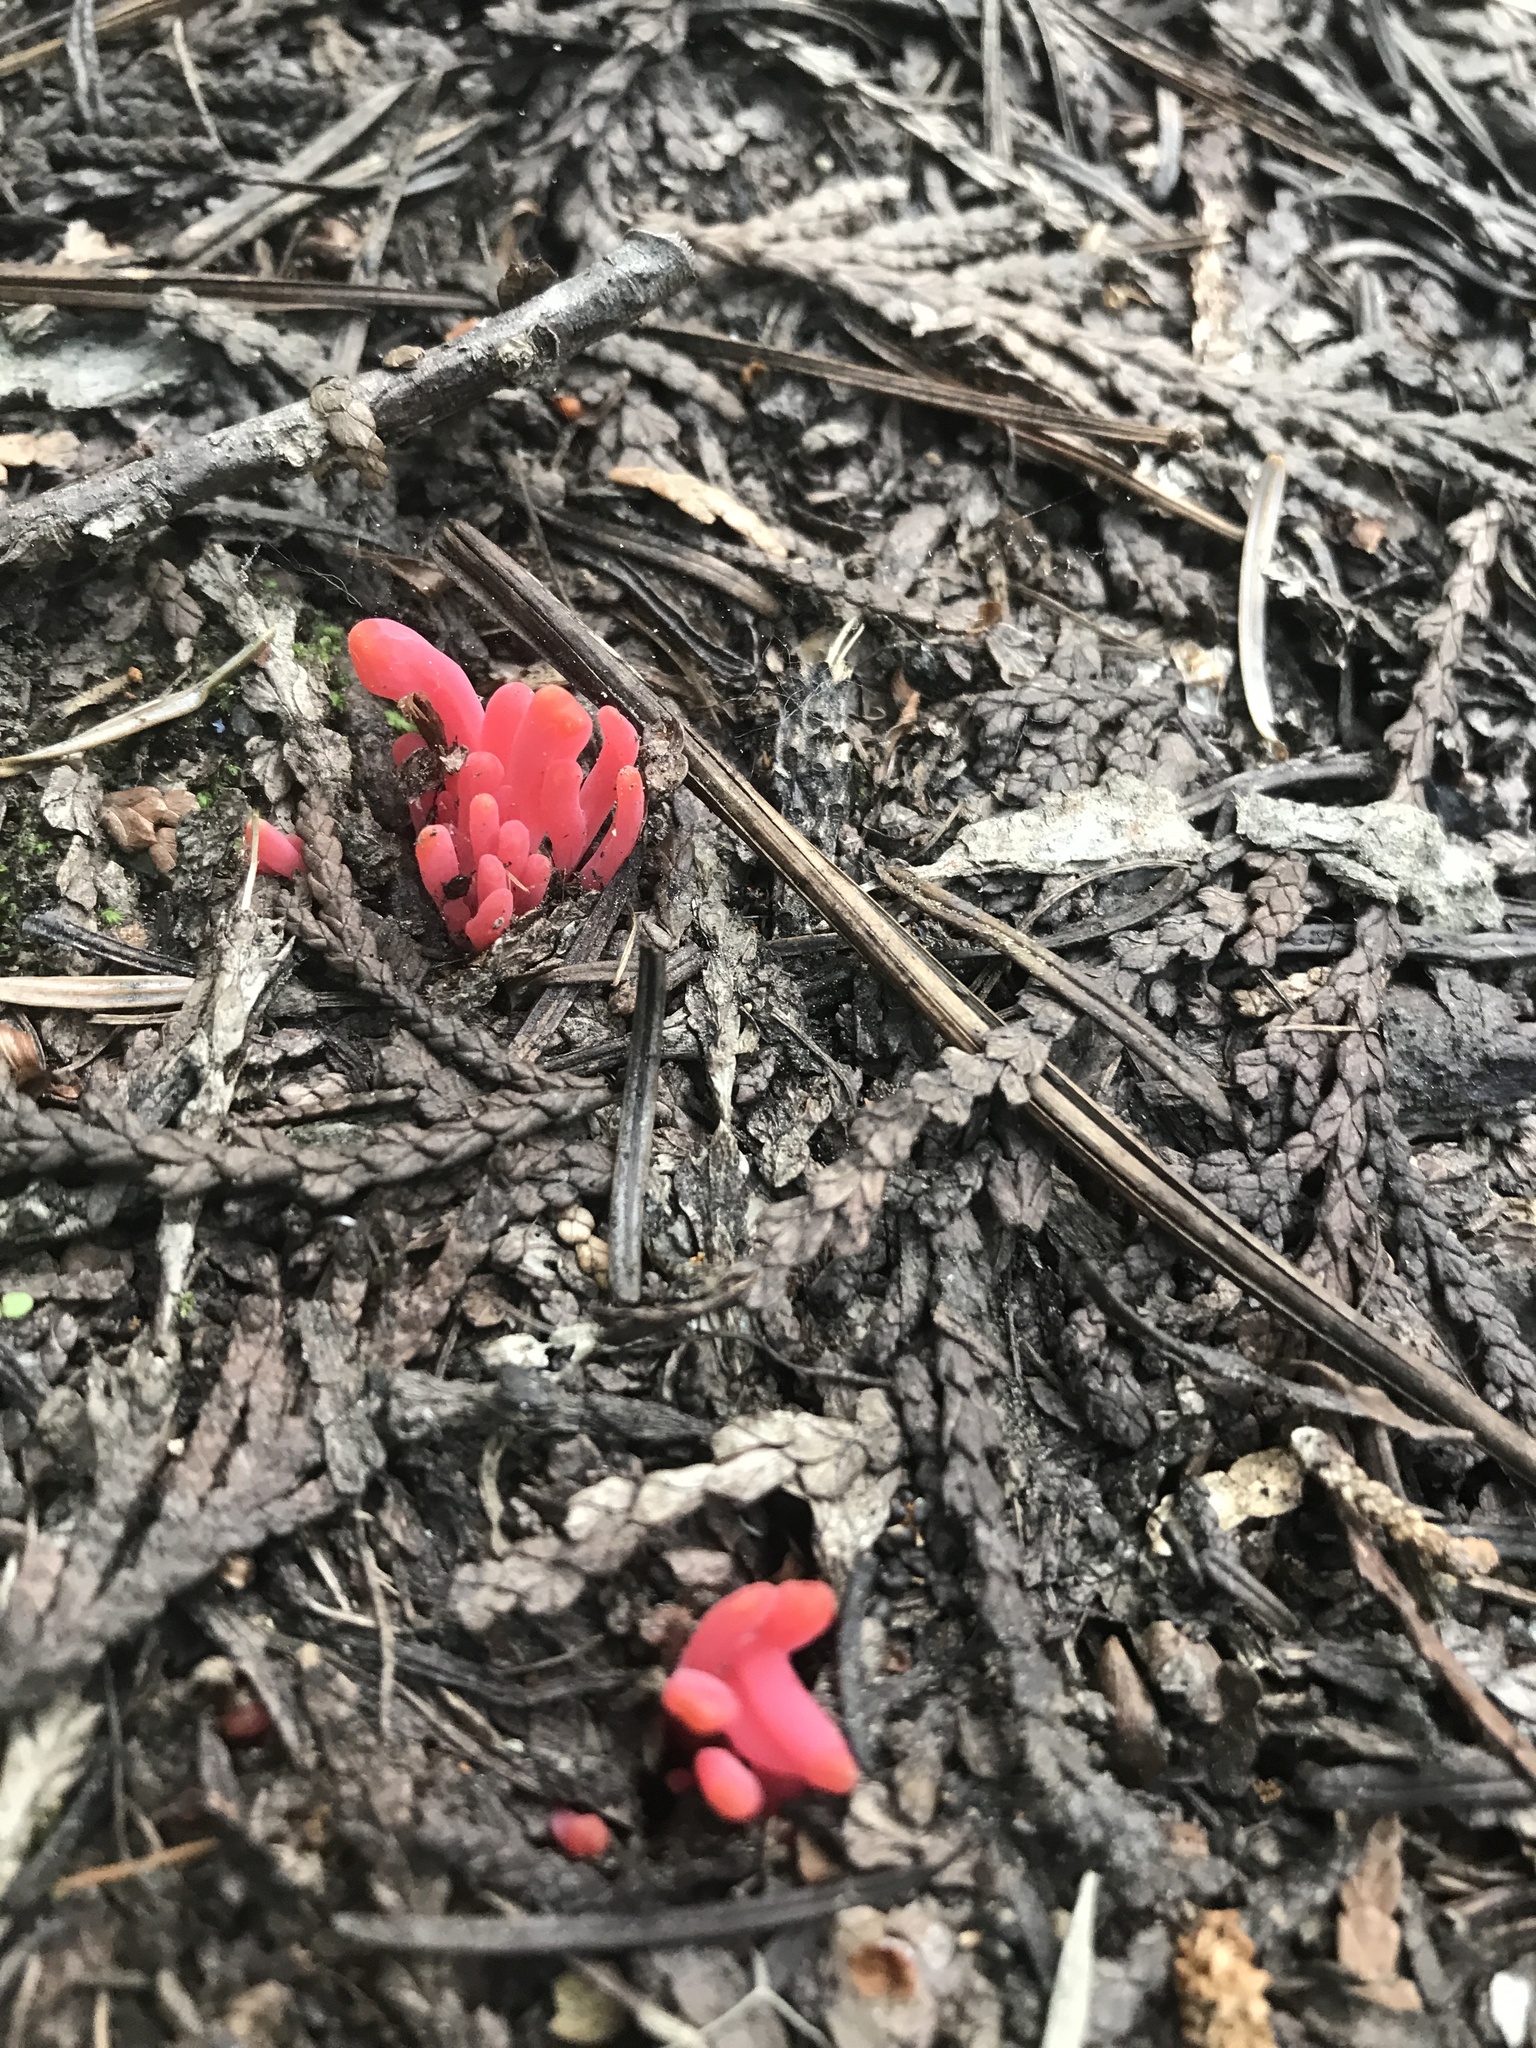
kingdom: Fungi
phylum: Basidiomycota
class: Agaricomycetes
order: Agaricales
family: Clavariaceae
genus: Clavaria
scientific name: Clavaria rosea
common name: Rose spindles
